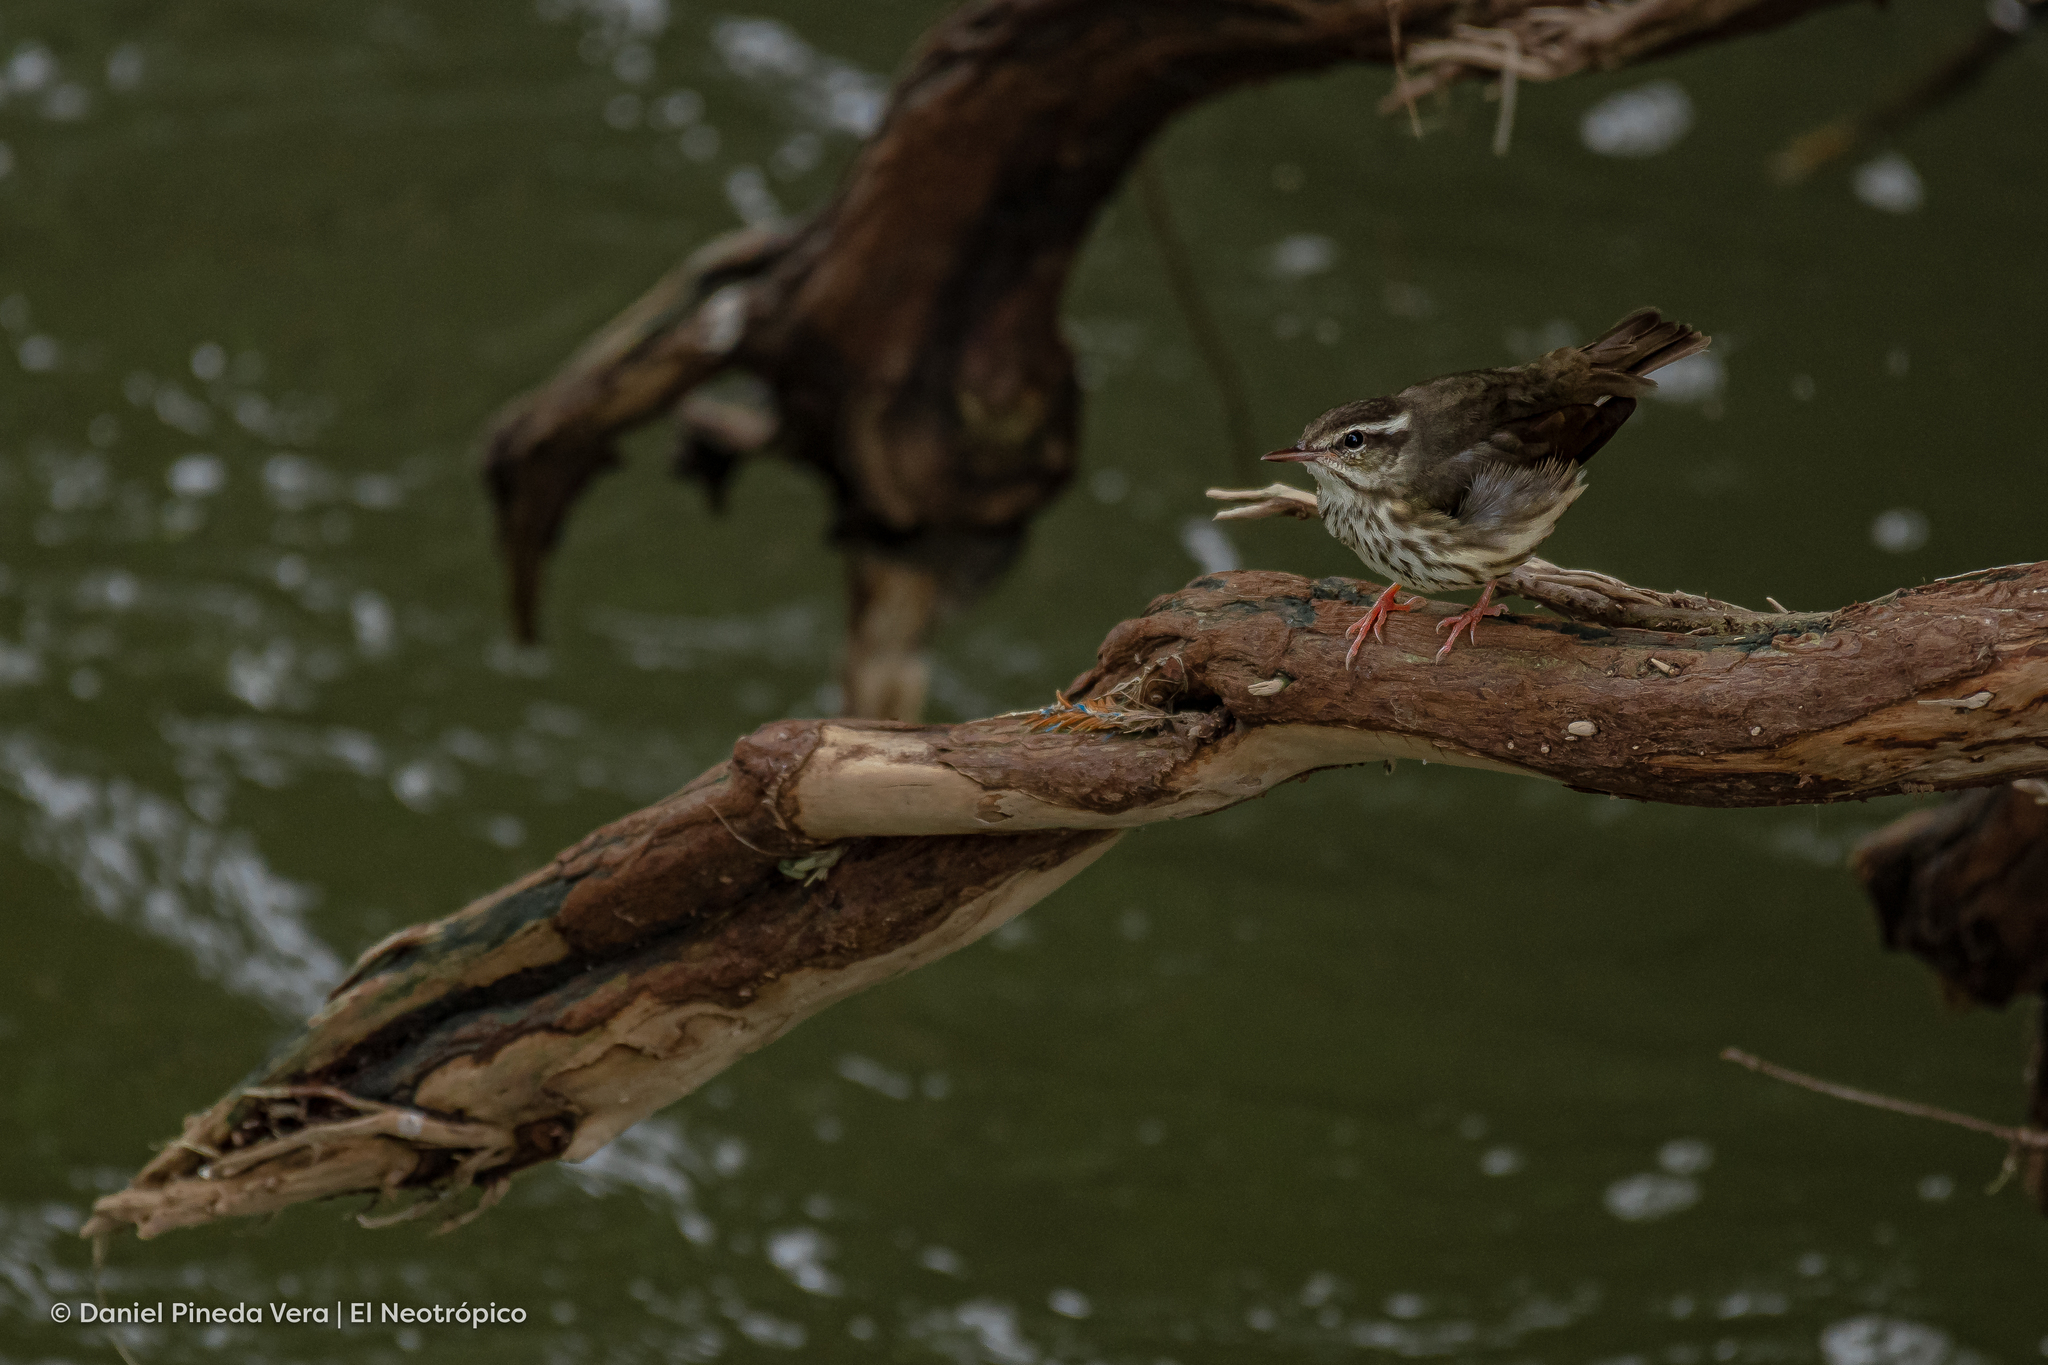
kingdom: Animalia
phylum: Chordata
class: Aves
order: Passeriformes
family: Parulidae
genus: Parkesia
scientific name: Parkesia motacilla
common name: Louisiana waterthrush
